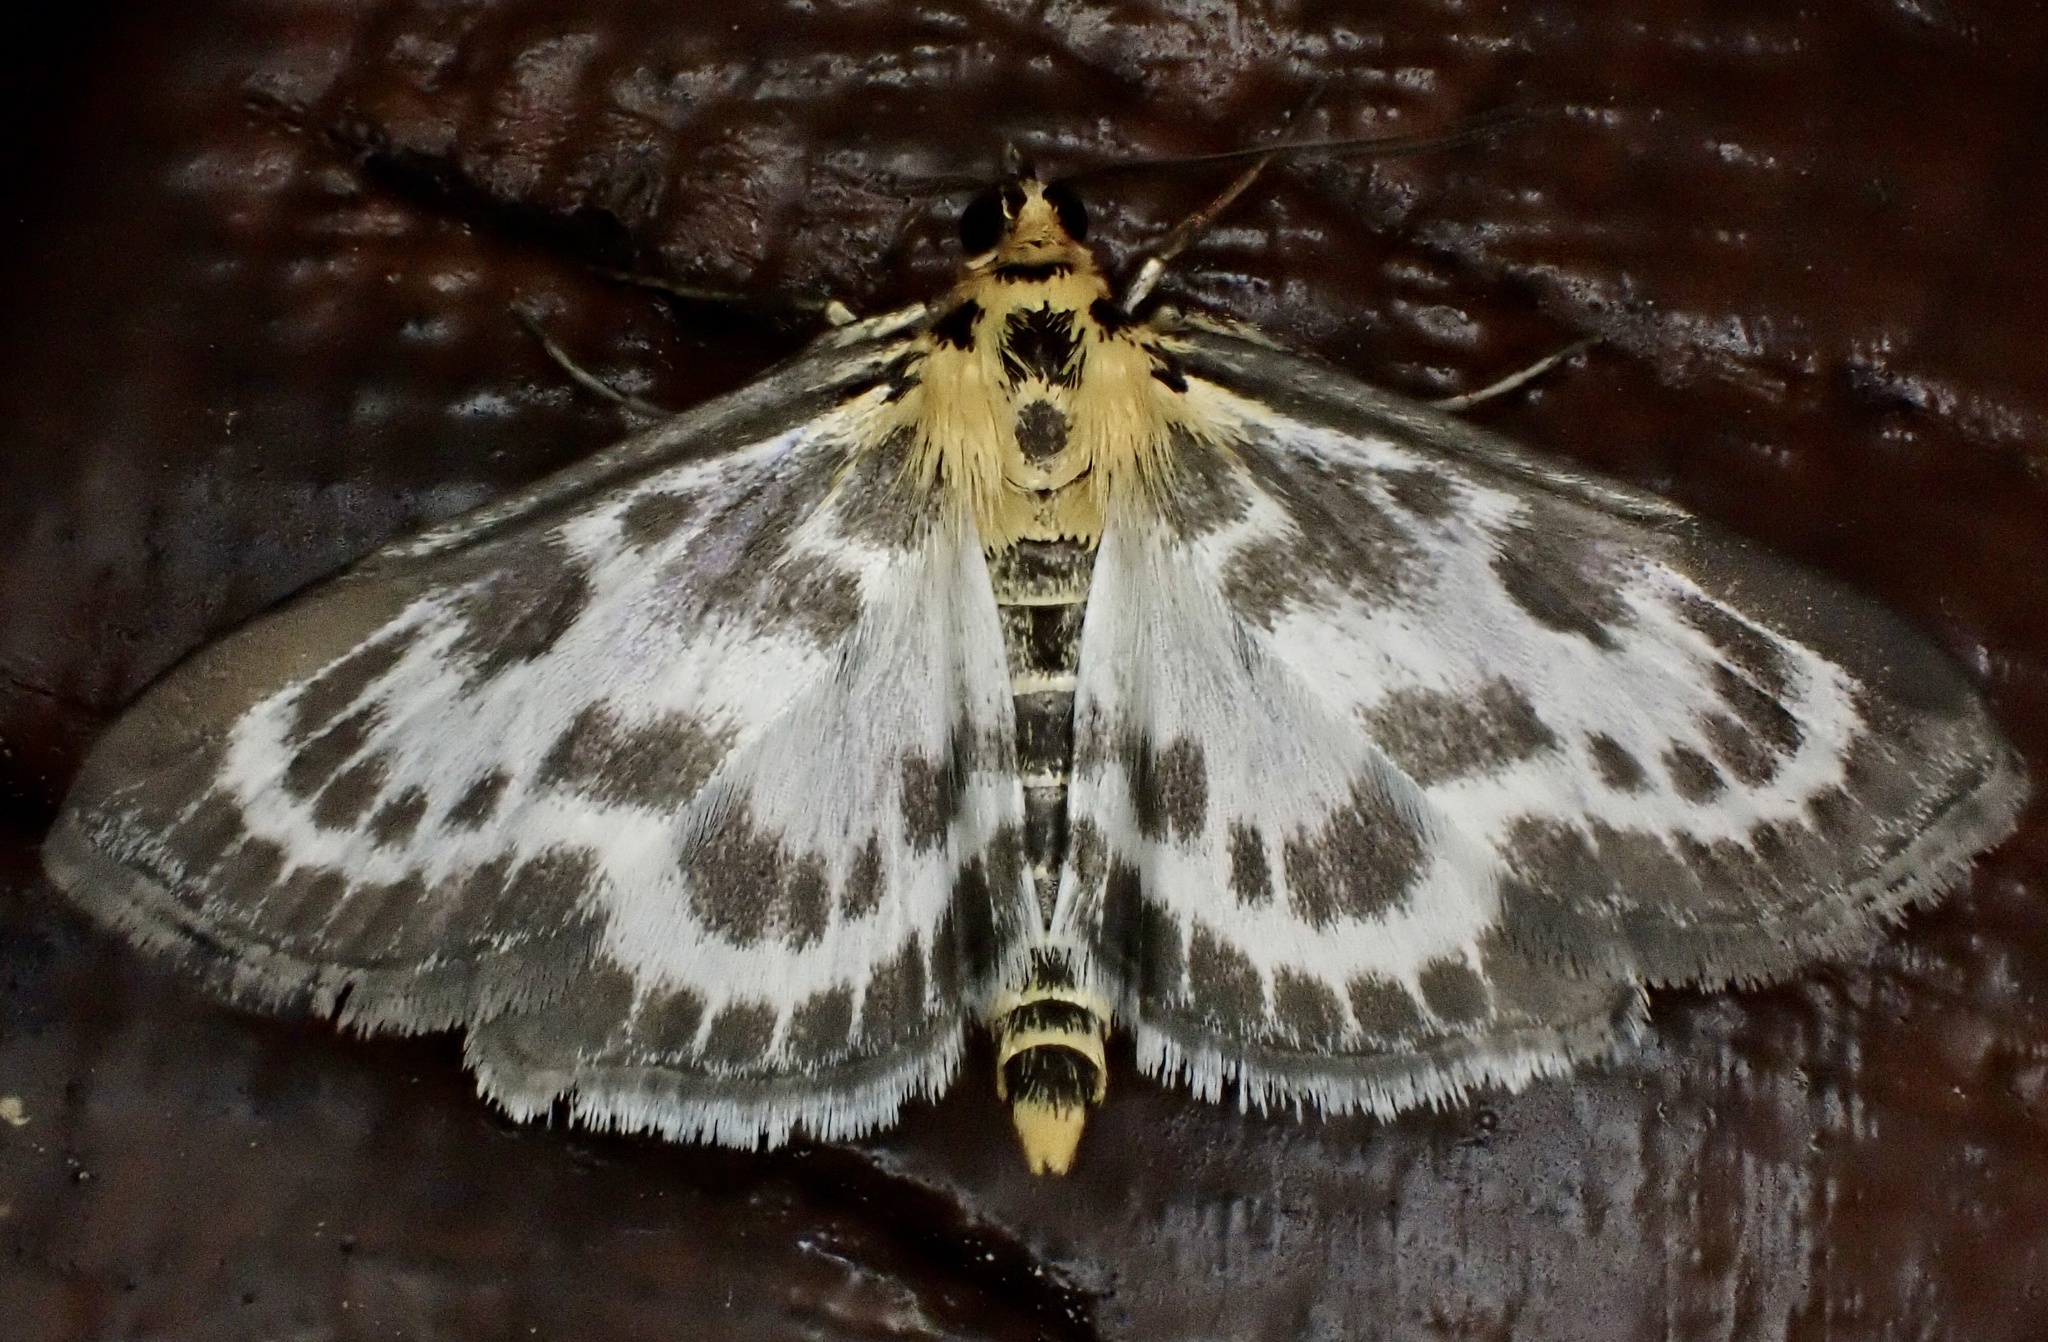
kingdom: Animalia
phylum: Arthropoda
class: Insecta
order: Lepidoptera
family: Crambidae
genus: Anania
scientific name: Anania hortulata
